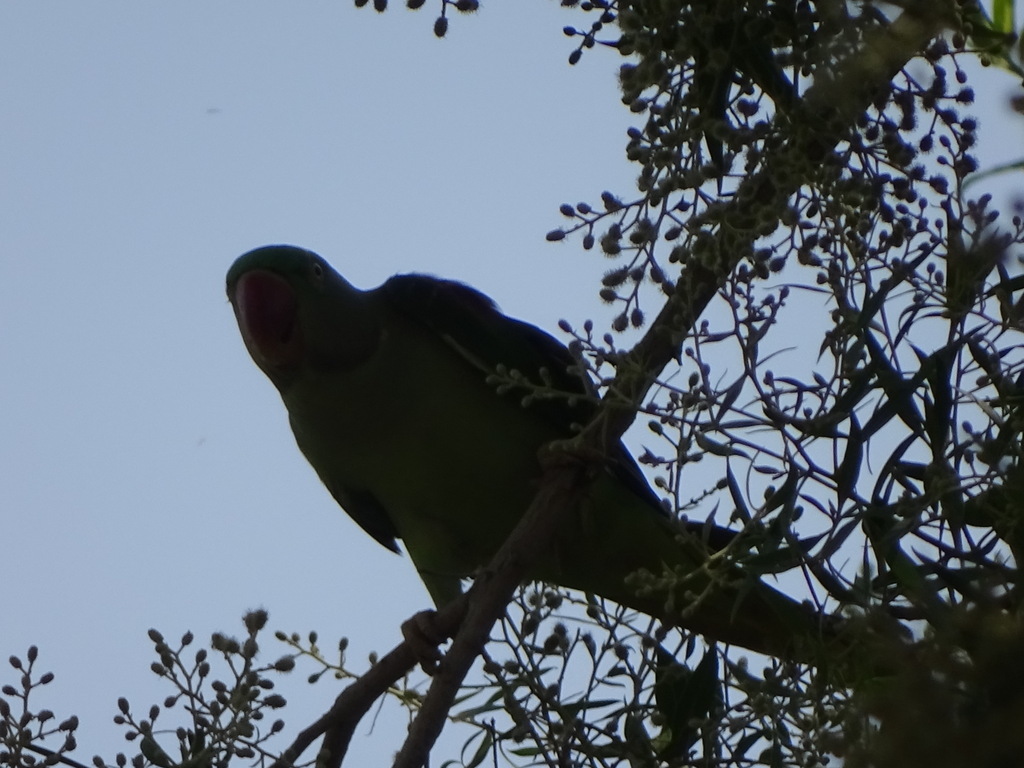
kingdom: Animalia
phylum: Chordata
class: Aves
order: Psittaciformes
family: Psittacidae
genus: Psittacula
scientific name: Psittacula eupatria
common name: Alexandrine parakeet
